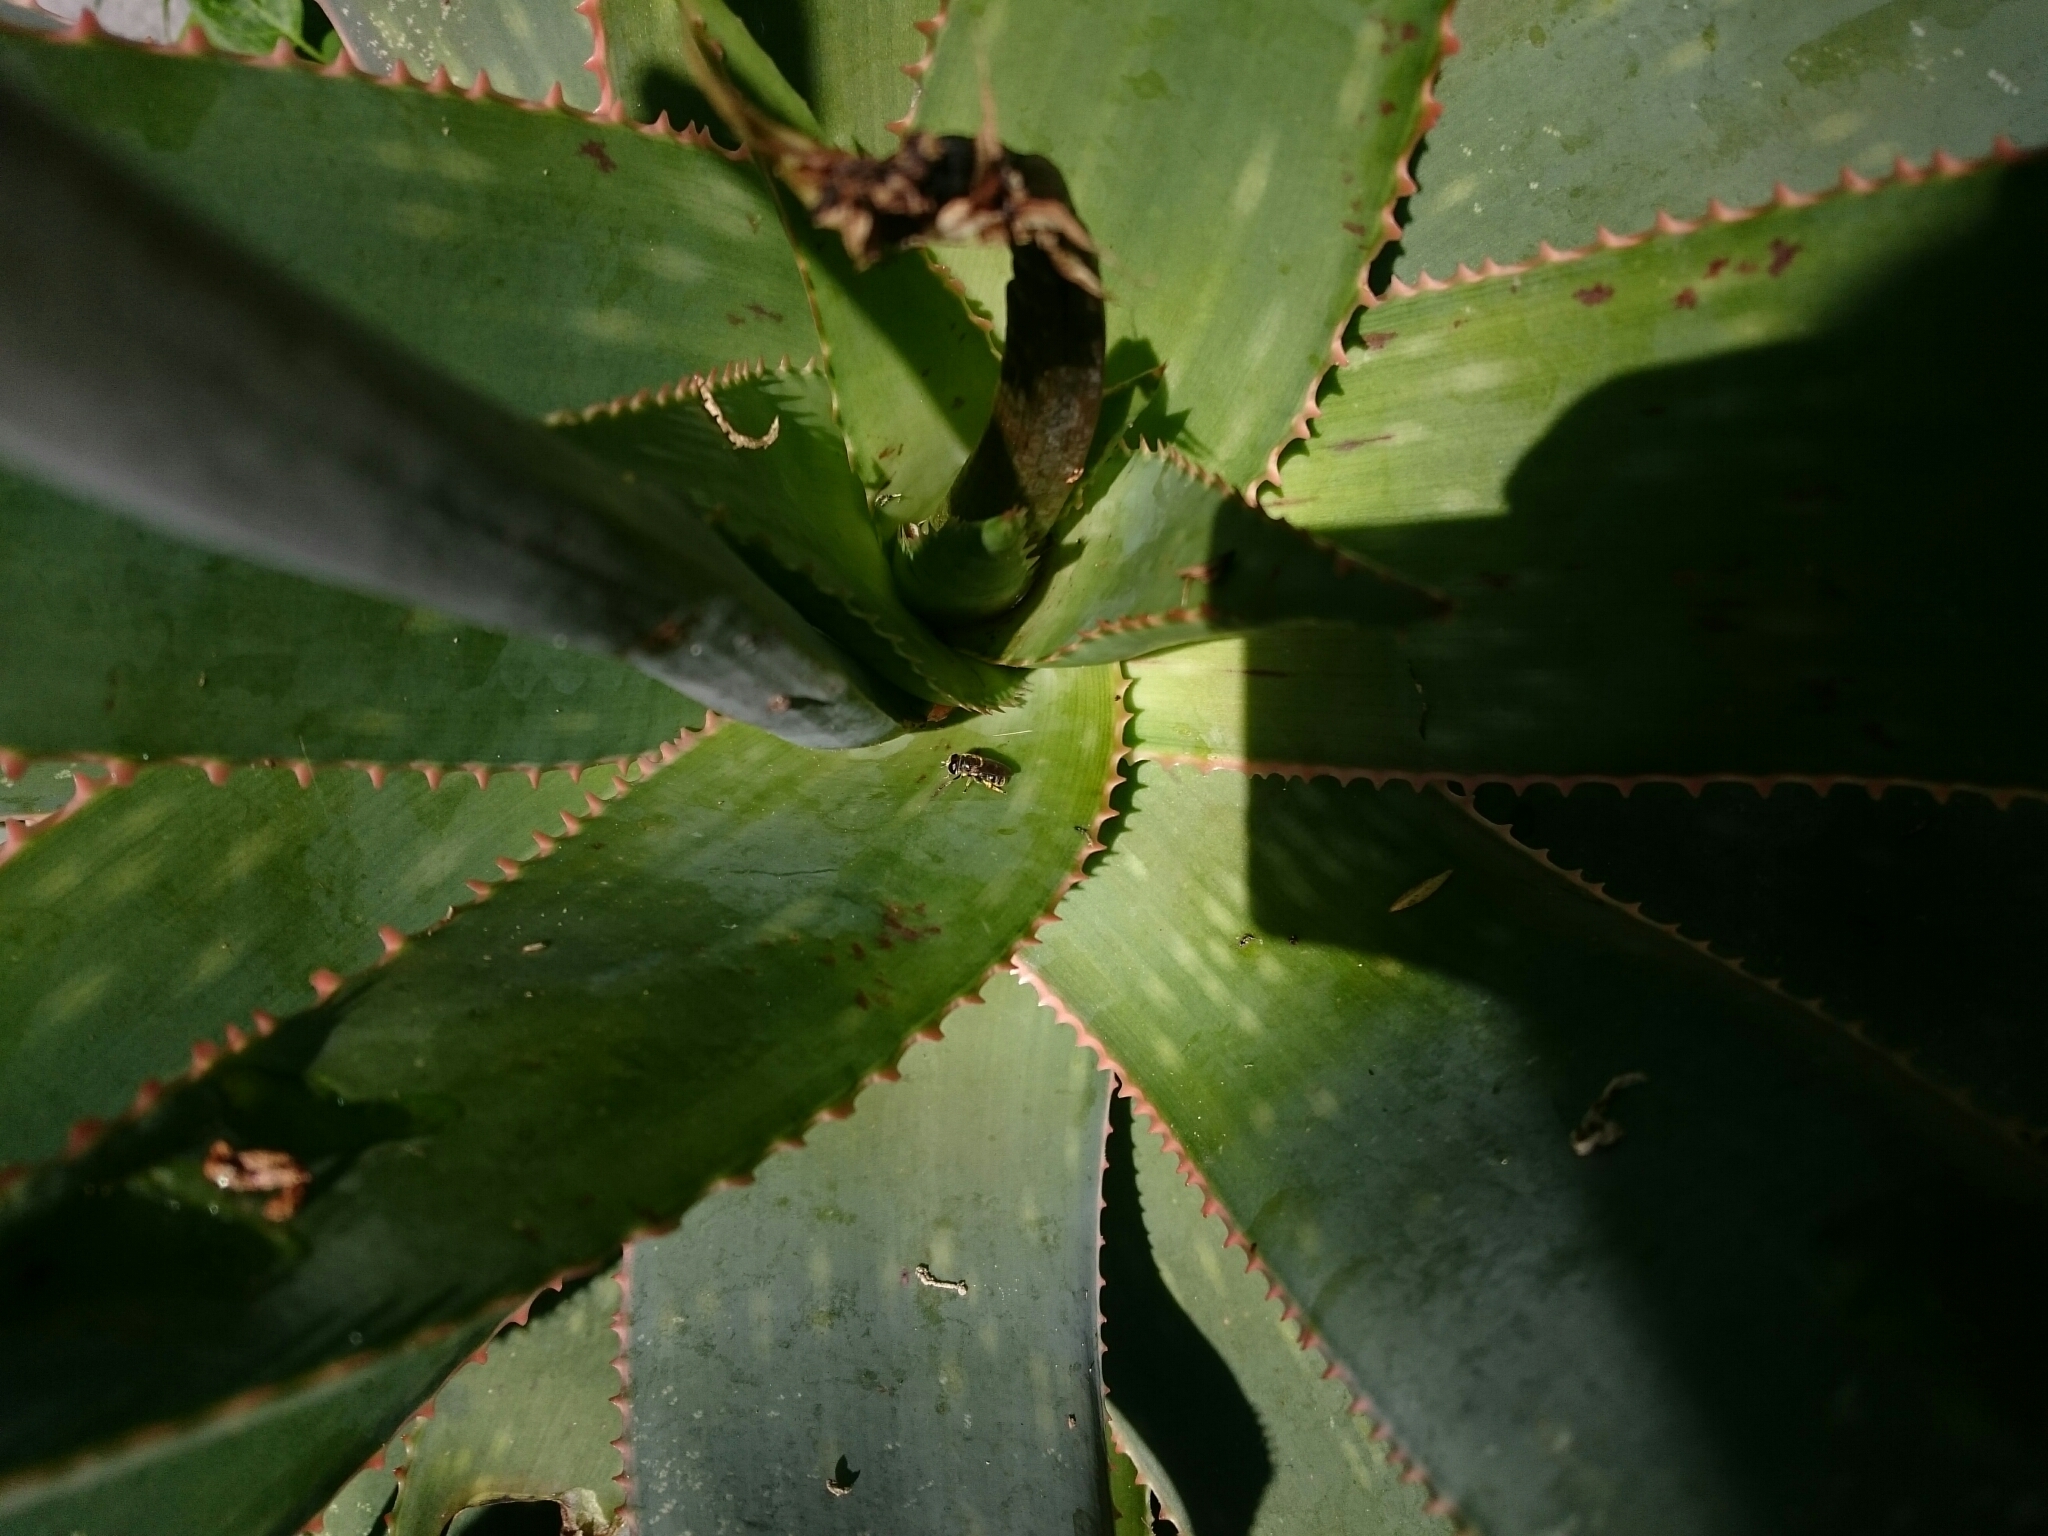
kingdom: Animalia
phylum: Arthropoda
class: Insecta
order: Diptera
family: Syrphidae
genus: Eumerus
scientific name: Eumerus obliquus
